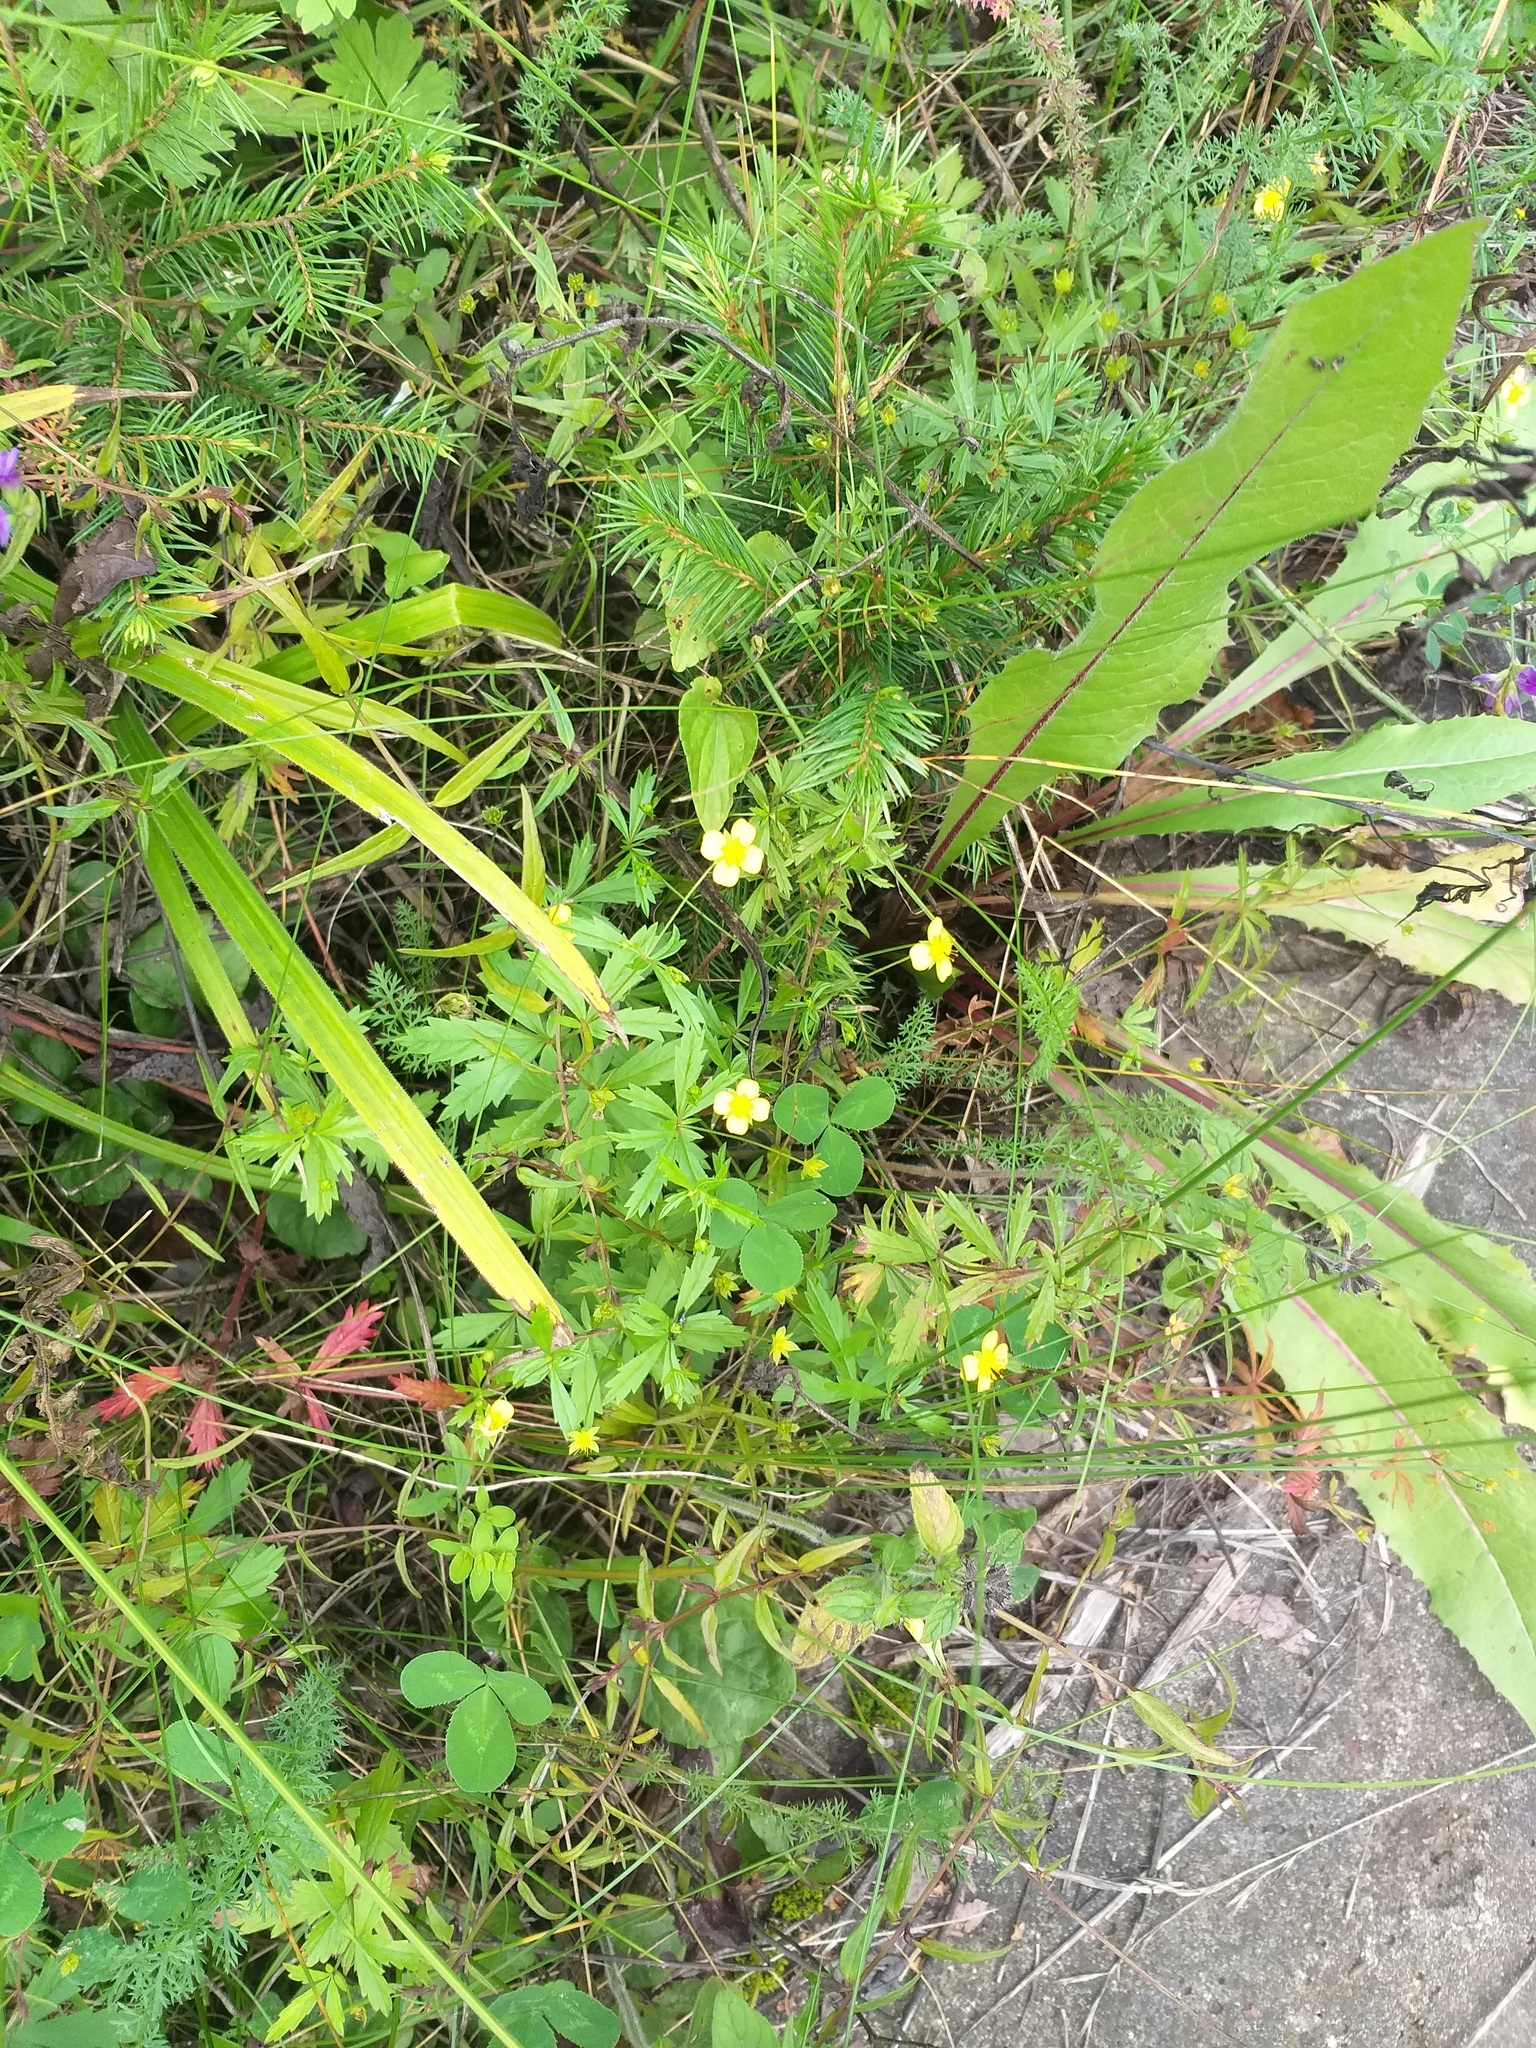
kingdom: Plantae
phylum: Tracheophyta
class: Magnoliopsida
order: Rosales
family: Rosaceae
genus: Potentilla
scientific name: Potentilla erecta
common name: Tormentil
